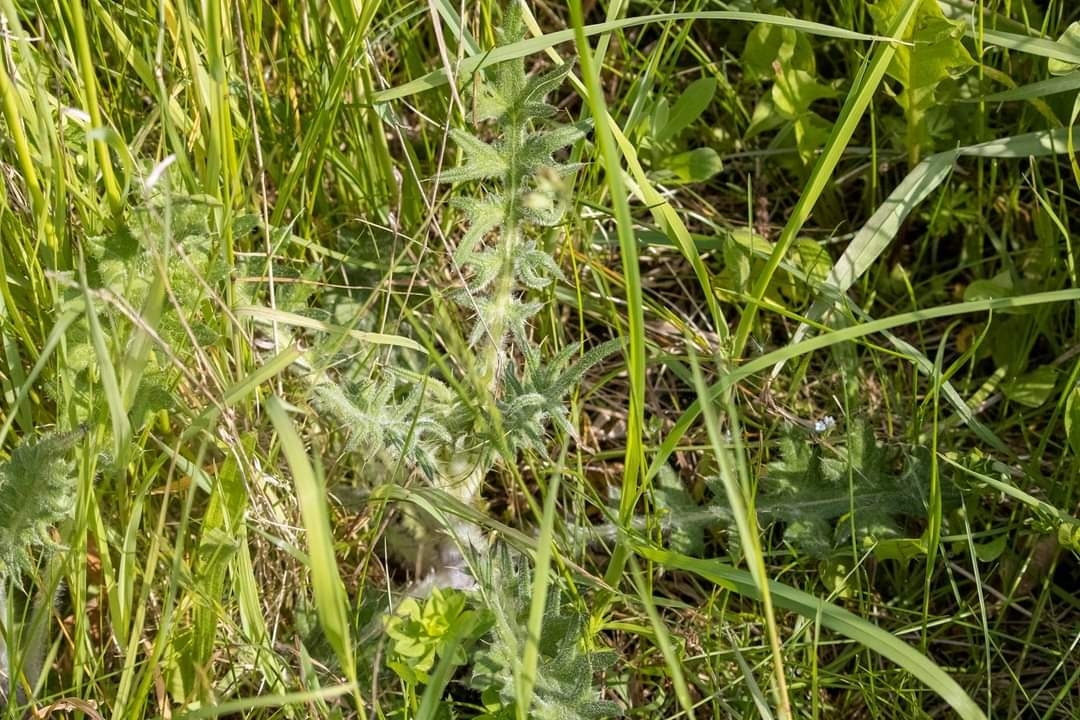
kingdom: Plantae
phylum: Tracheophyta
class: Magnoliopsida
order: Asterales
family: Asteraceae
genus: Cirsium
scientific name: Cirsium vulgare
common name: Bull thistle
